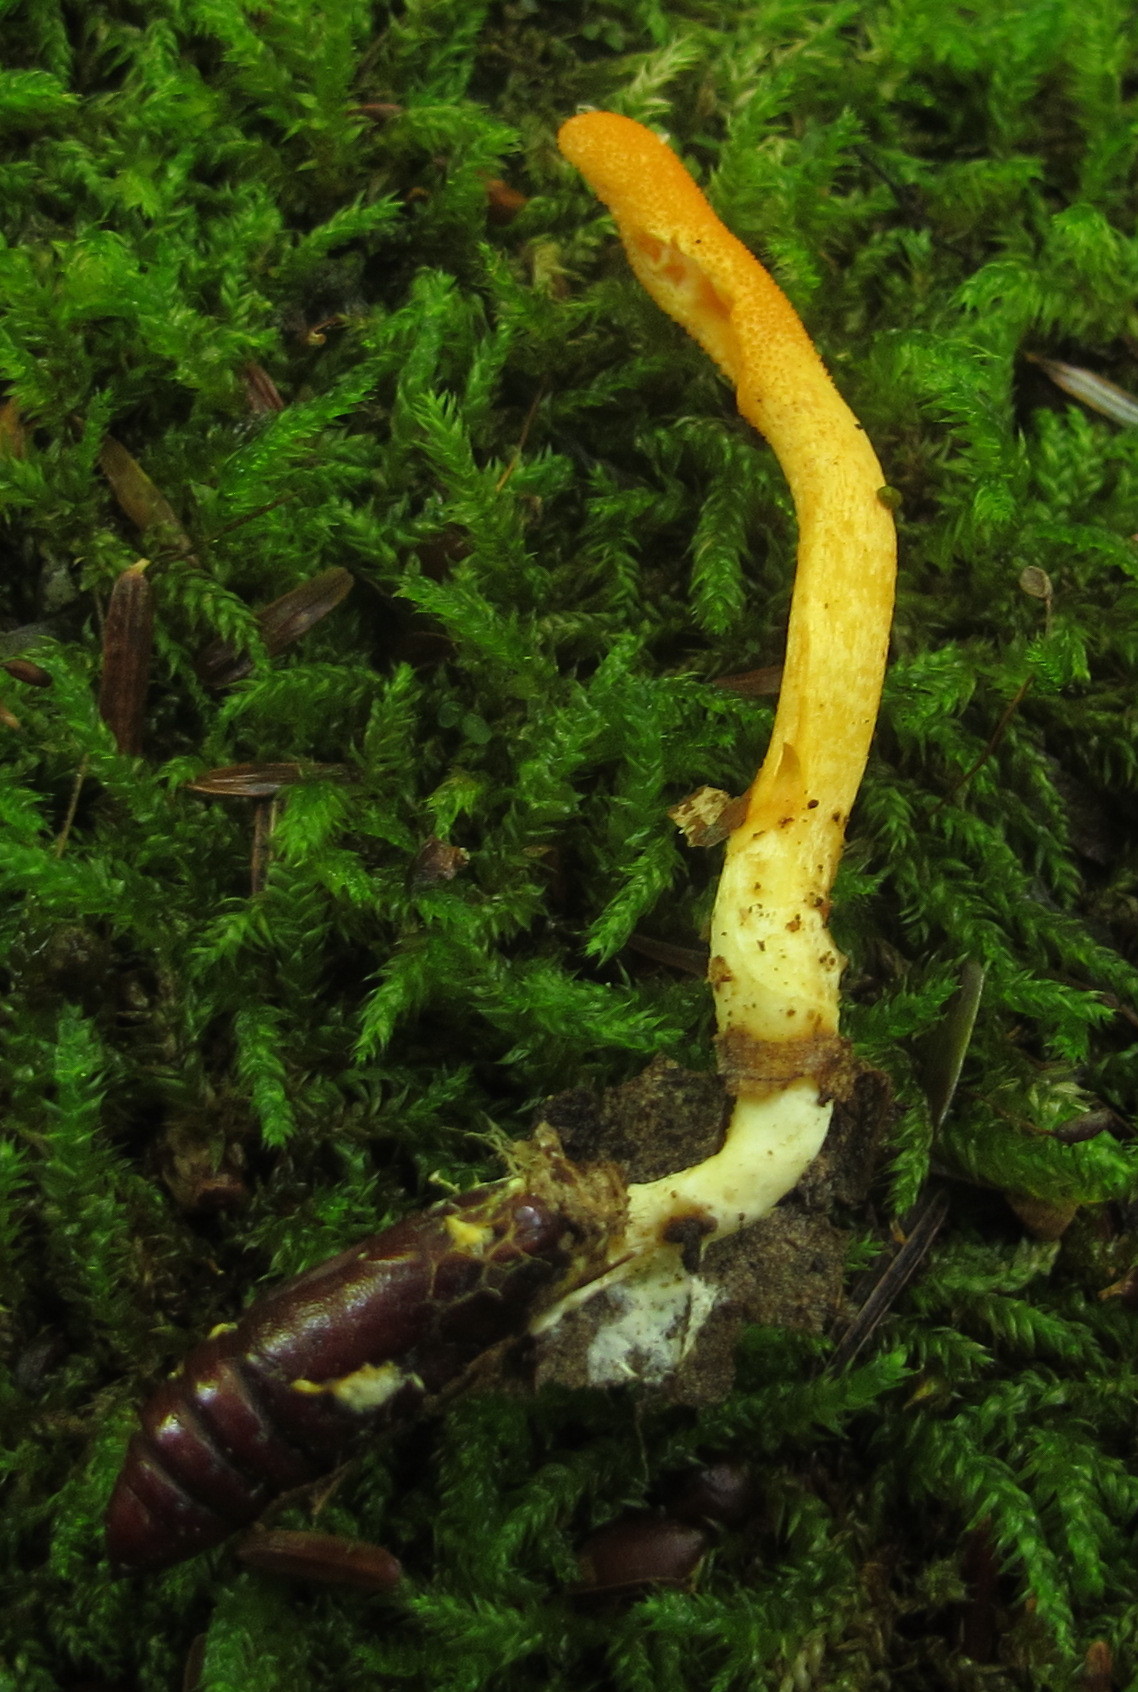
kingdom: Fungi
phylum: Ascomycota
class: Sordariomycetes
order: Hypocreales
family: Cordycipitaceae
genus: Cordyceps
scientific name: Cordyceps militaris
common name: Scarlet caterpillar fungus
